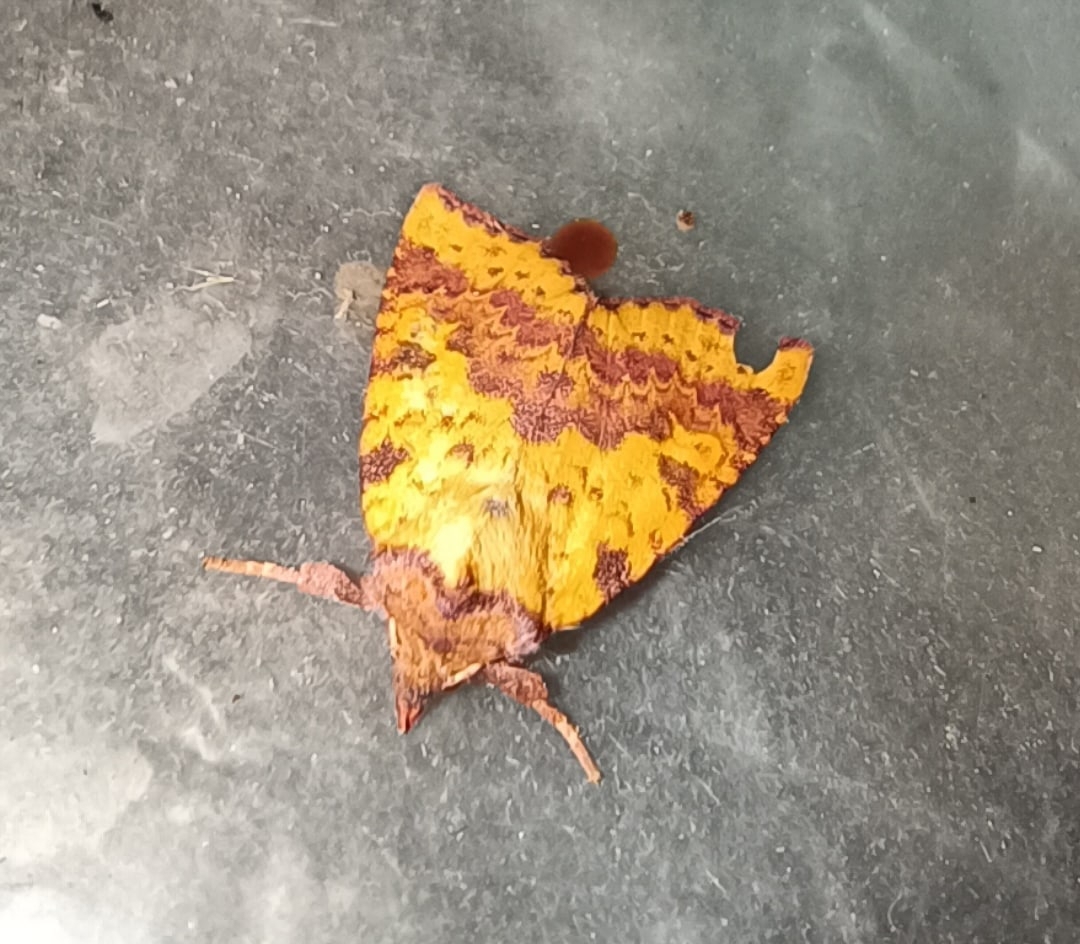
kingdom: Animalia
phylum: Arthropoda
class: Insecta
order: Lepidoptera
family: Noctuidae
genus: Xanthia
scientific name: Xanthia togata
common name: Pink-barred sallow
